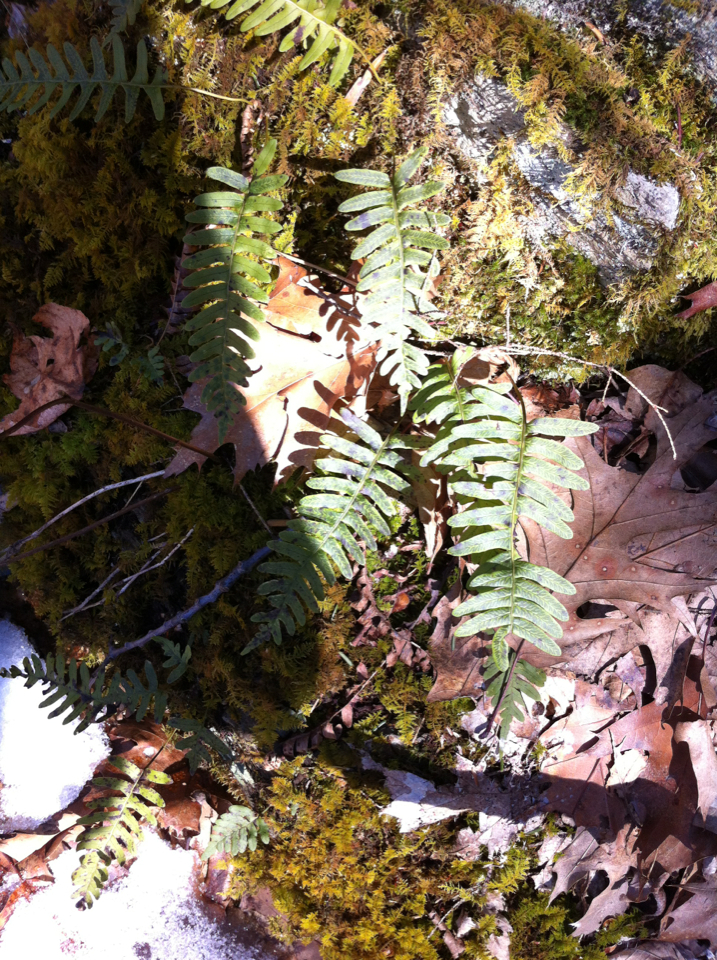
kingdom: Plantae
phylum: Tracheophyta
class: Polypodiopsida
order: Polypodiales
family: Polypodiaceae
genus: Polypodium
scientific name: Polypodium virginianum
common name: American wall fern
